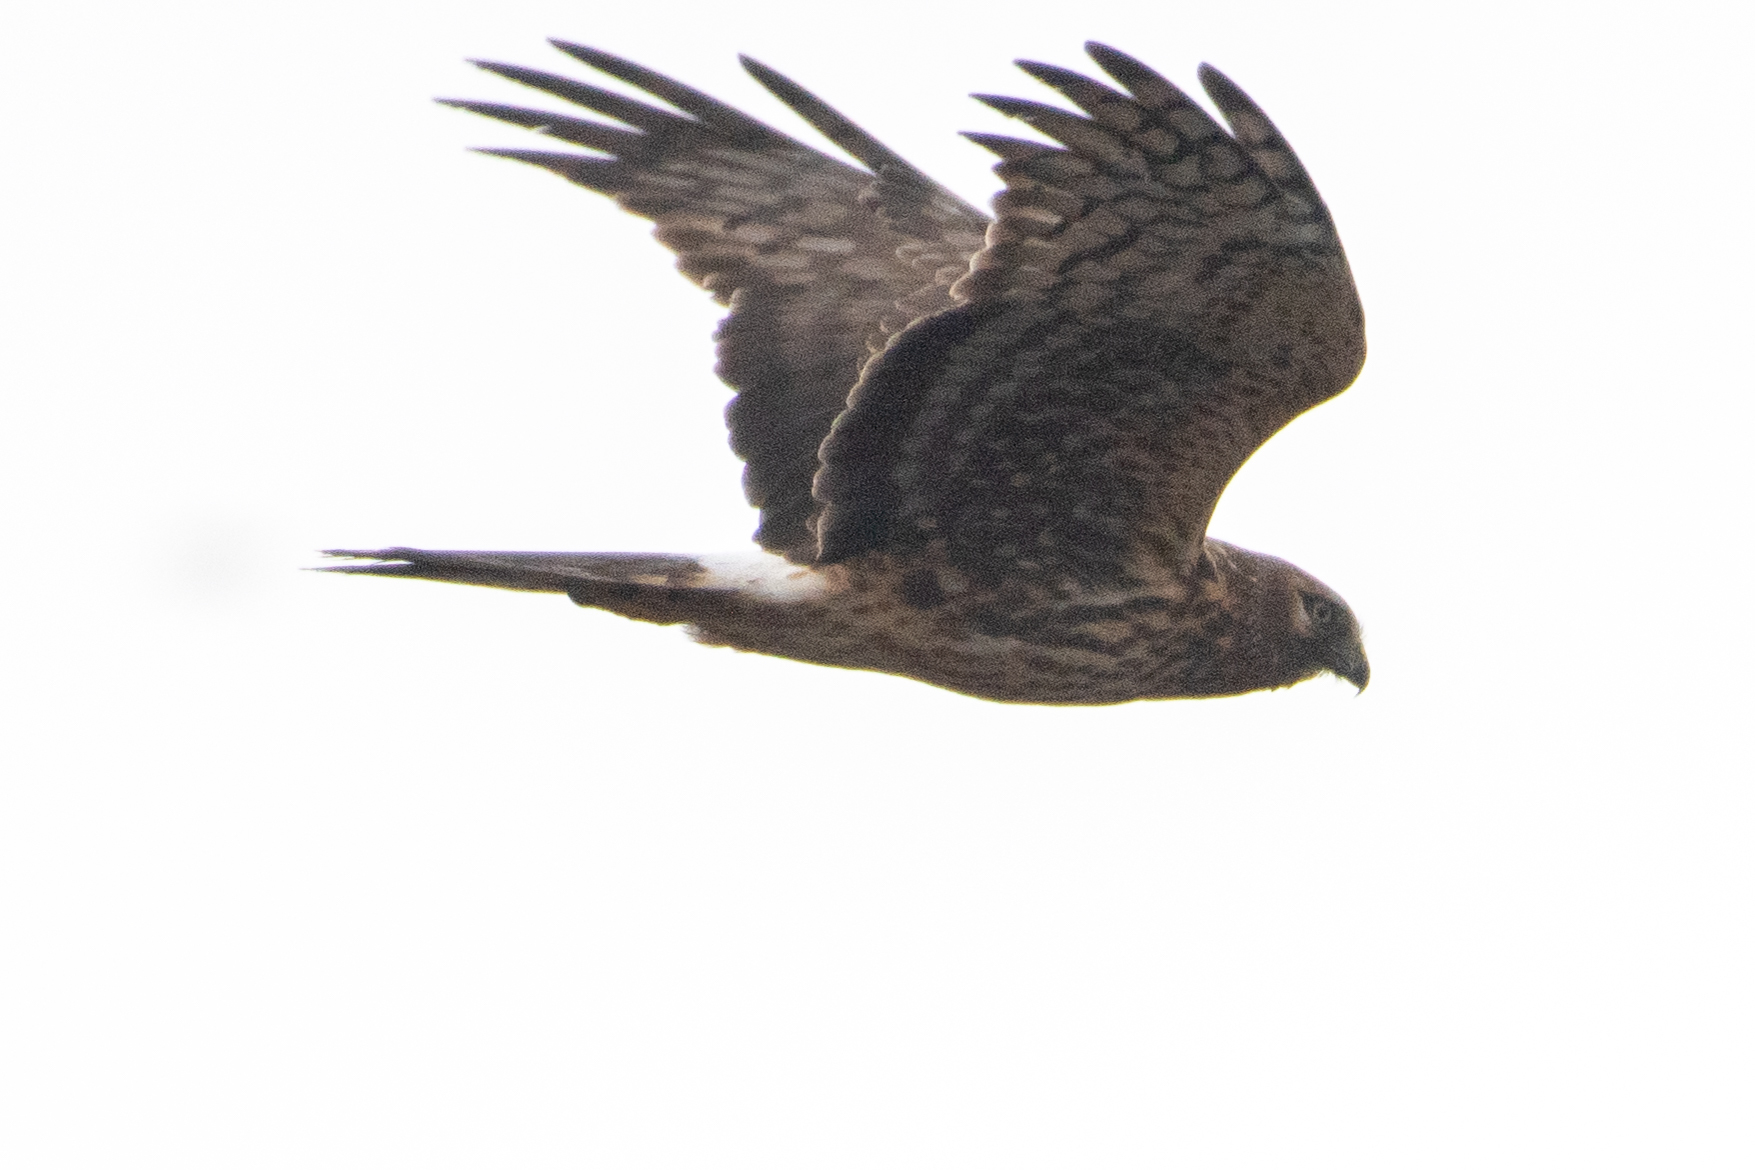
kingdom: Animalia
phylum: Chordata
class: Aves
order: Accipitriformes
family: Accipitridae
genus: Circus
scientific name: Circus cyaneus
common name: Hen harrier
